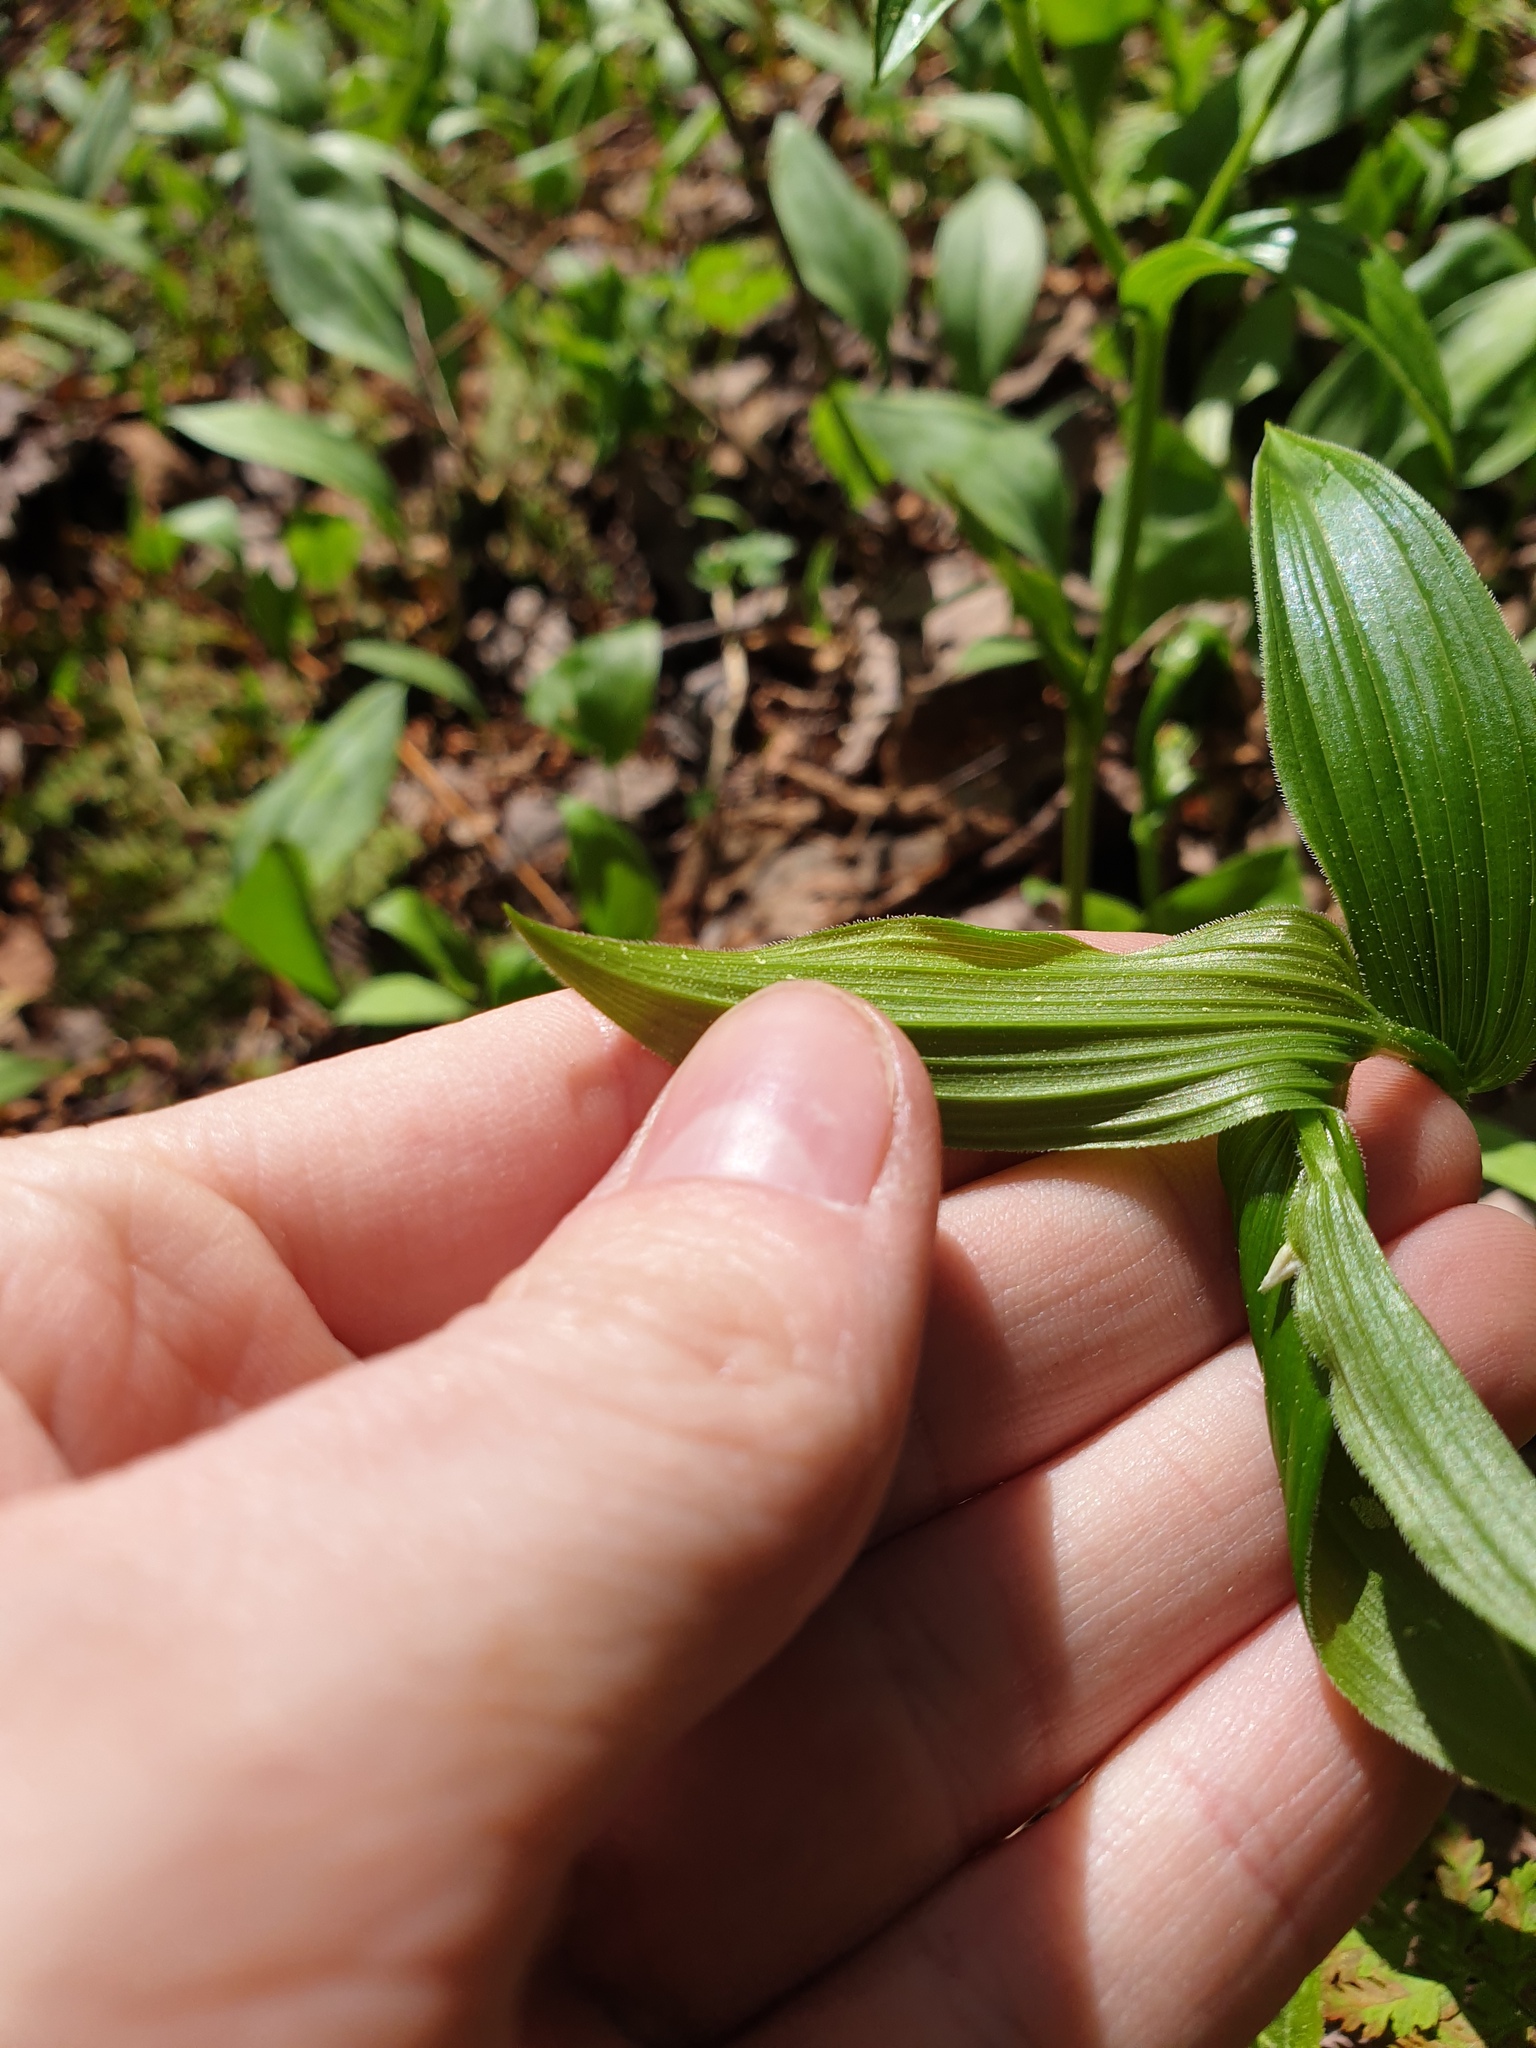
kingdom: Plantae
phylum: Tracheophyta
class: Liliopsida
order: Liliales
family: Liliaceae
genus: Streptopus
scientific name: Streptopus lanceolatus
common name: Rose mandarin
